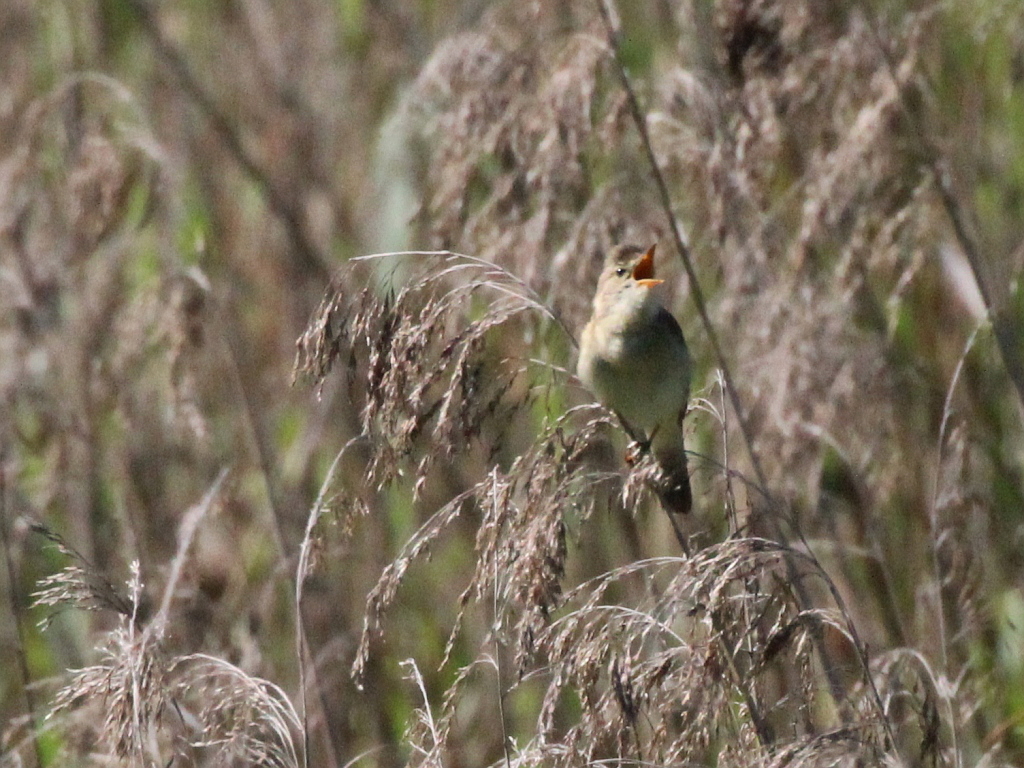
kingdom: Animalia
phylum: Chordata
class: Aves
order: Passeriformes
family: Acrocephalidae
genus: Acrocephalus
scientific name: Acrocephalus palustris
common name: Marsh warbler
